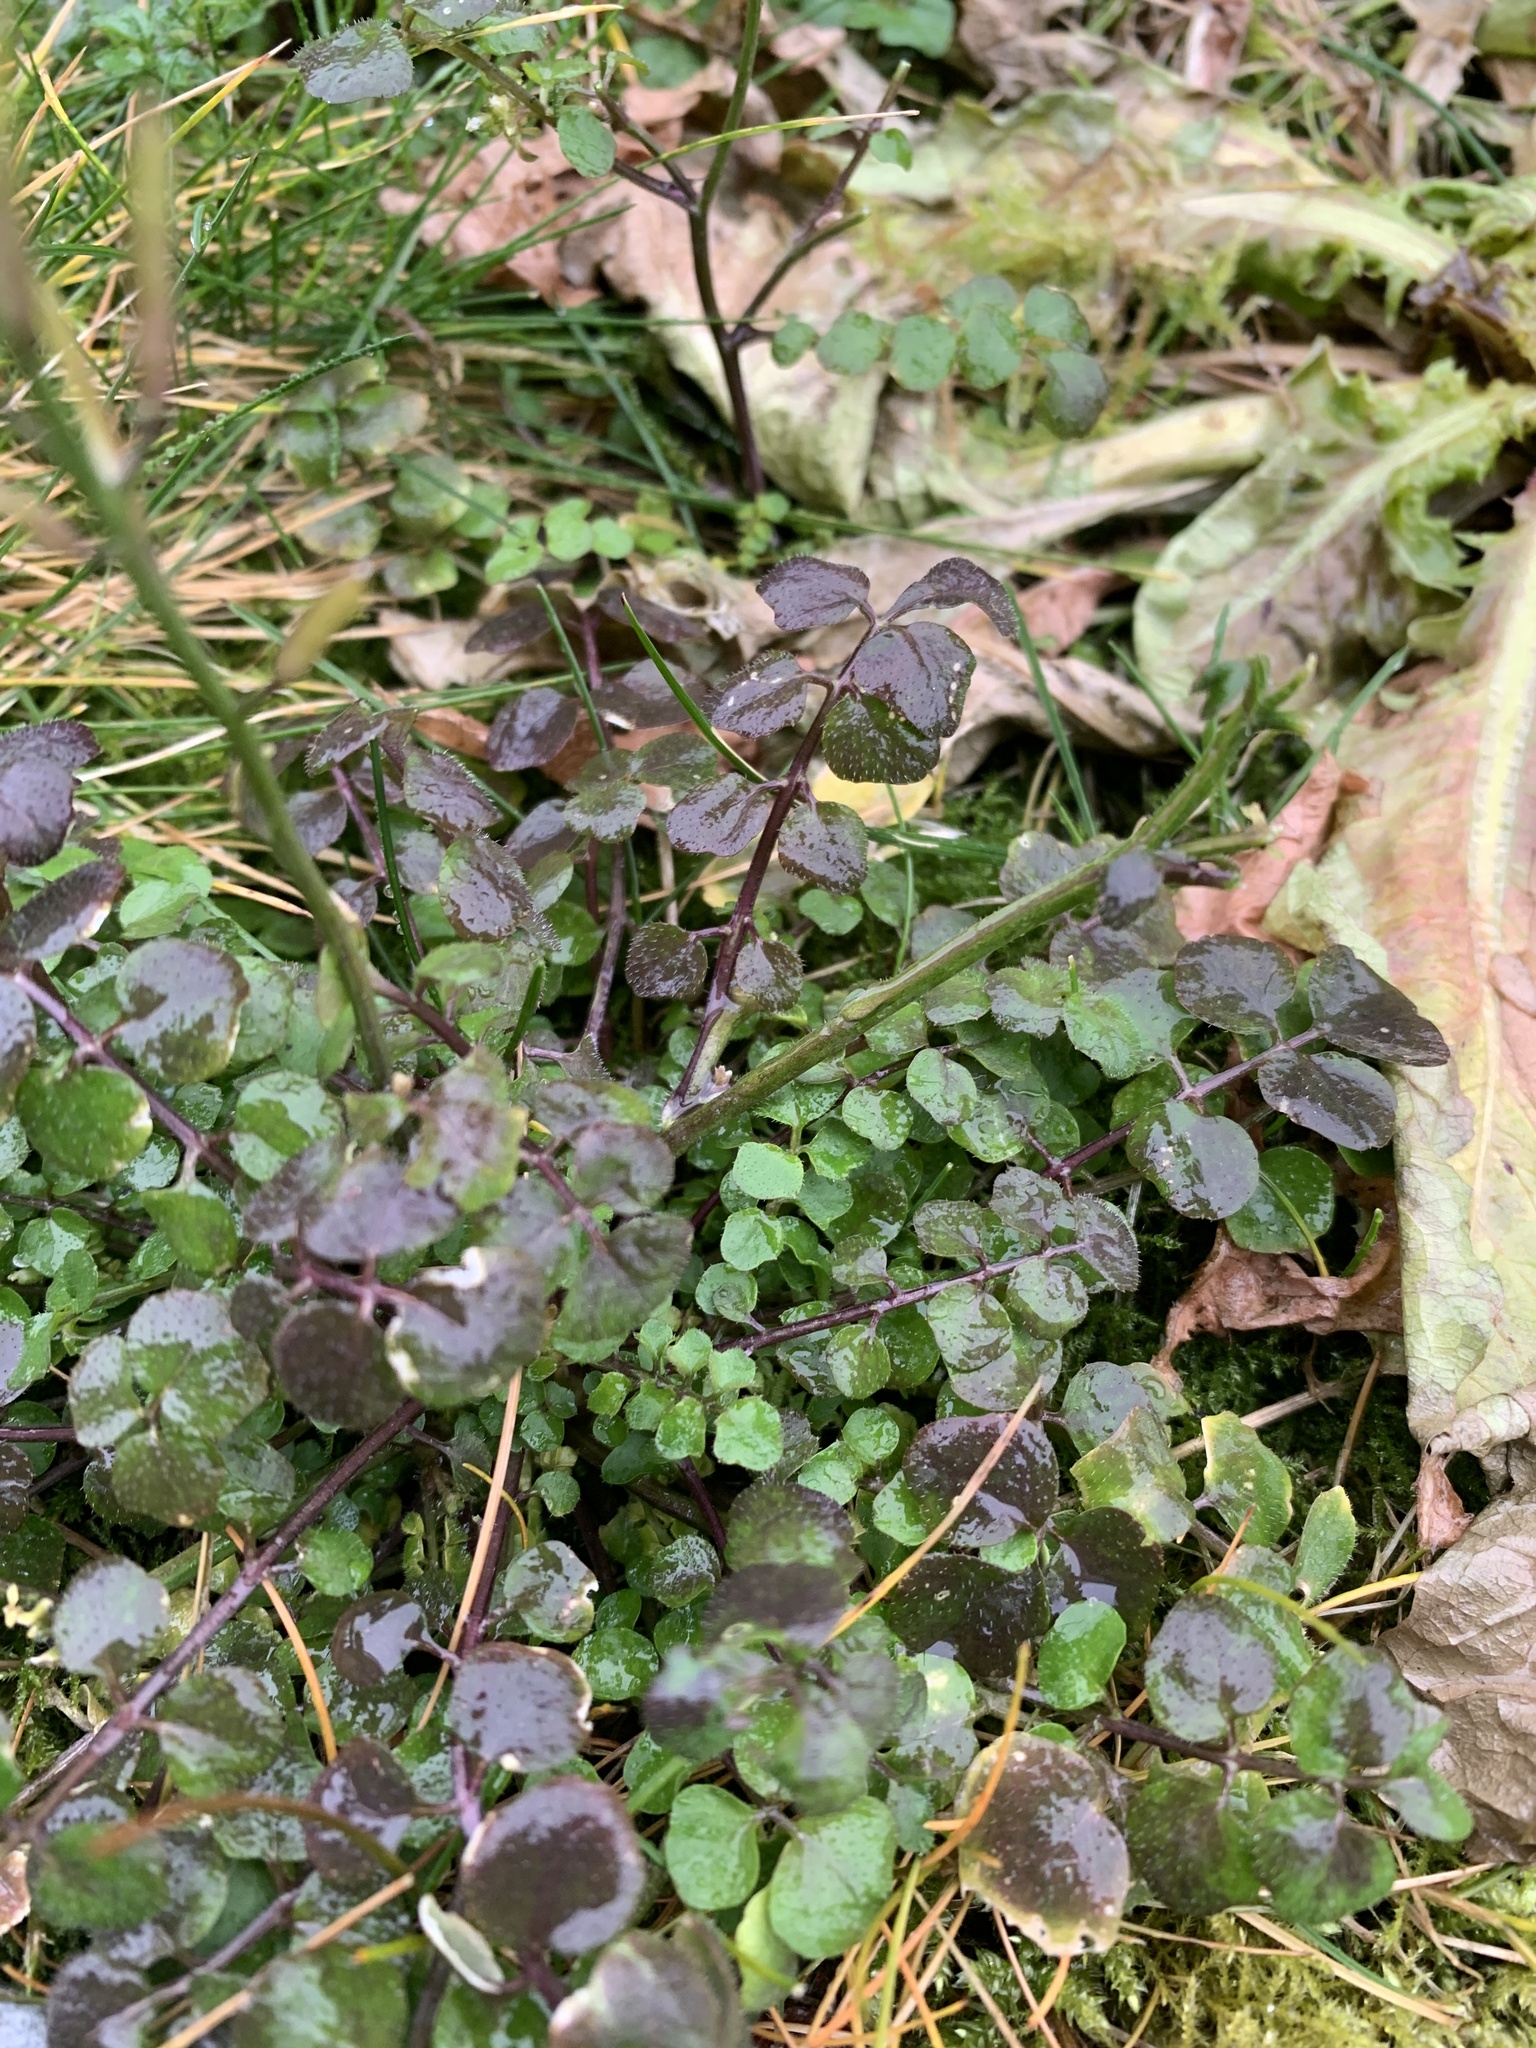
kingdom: Plantae
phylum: Tracheophyta
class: Magnoliopsida
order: Brassicales
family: Brassicaceae
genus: Cardamine
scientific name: Cardamine flexuosa
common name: Woodland bittercress
